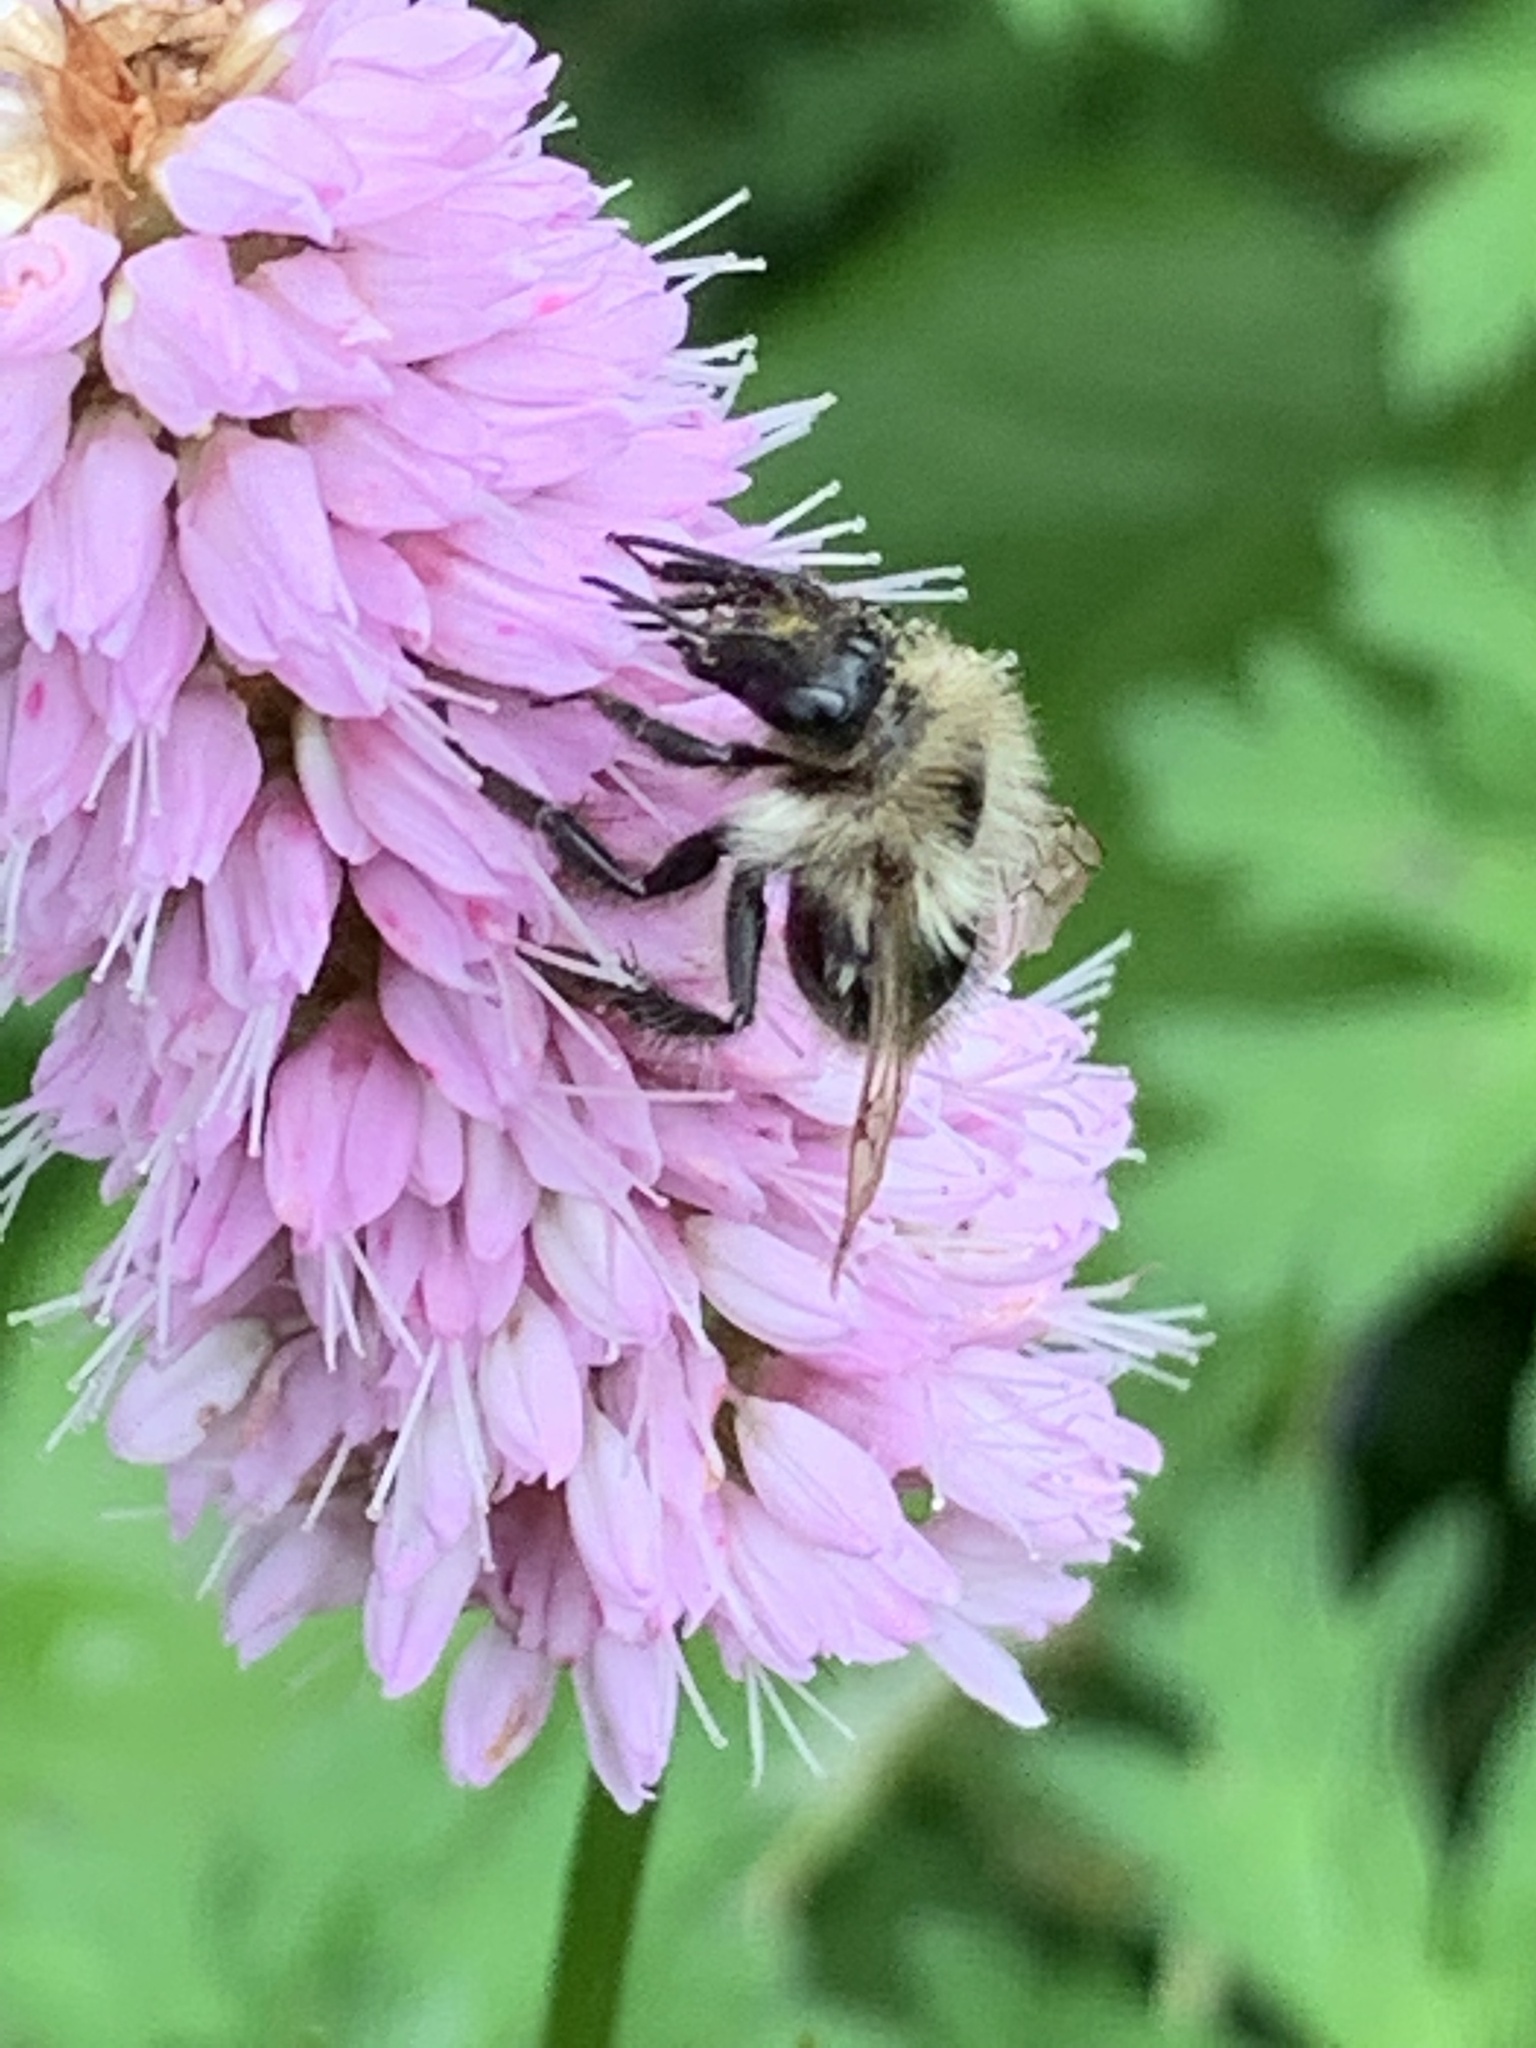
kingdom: Animalia
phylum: Arthropoda
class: Insecta
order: Hymenoptera
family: Apidae
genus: Bombus
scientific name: Bombus pascuorum
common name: Common carder bee
